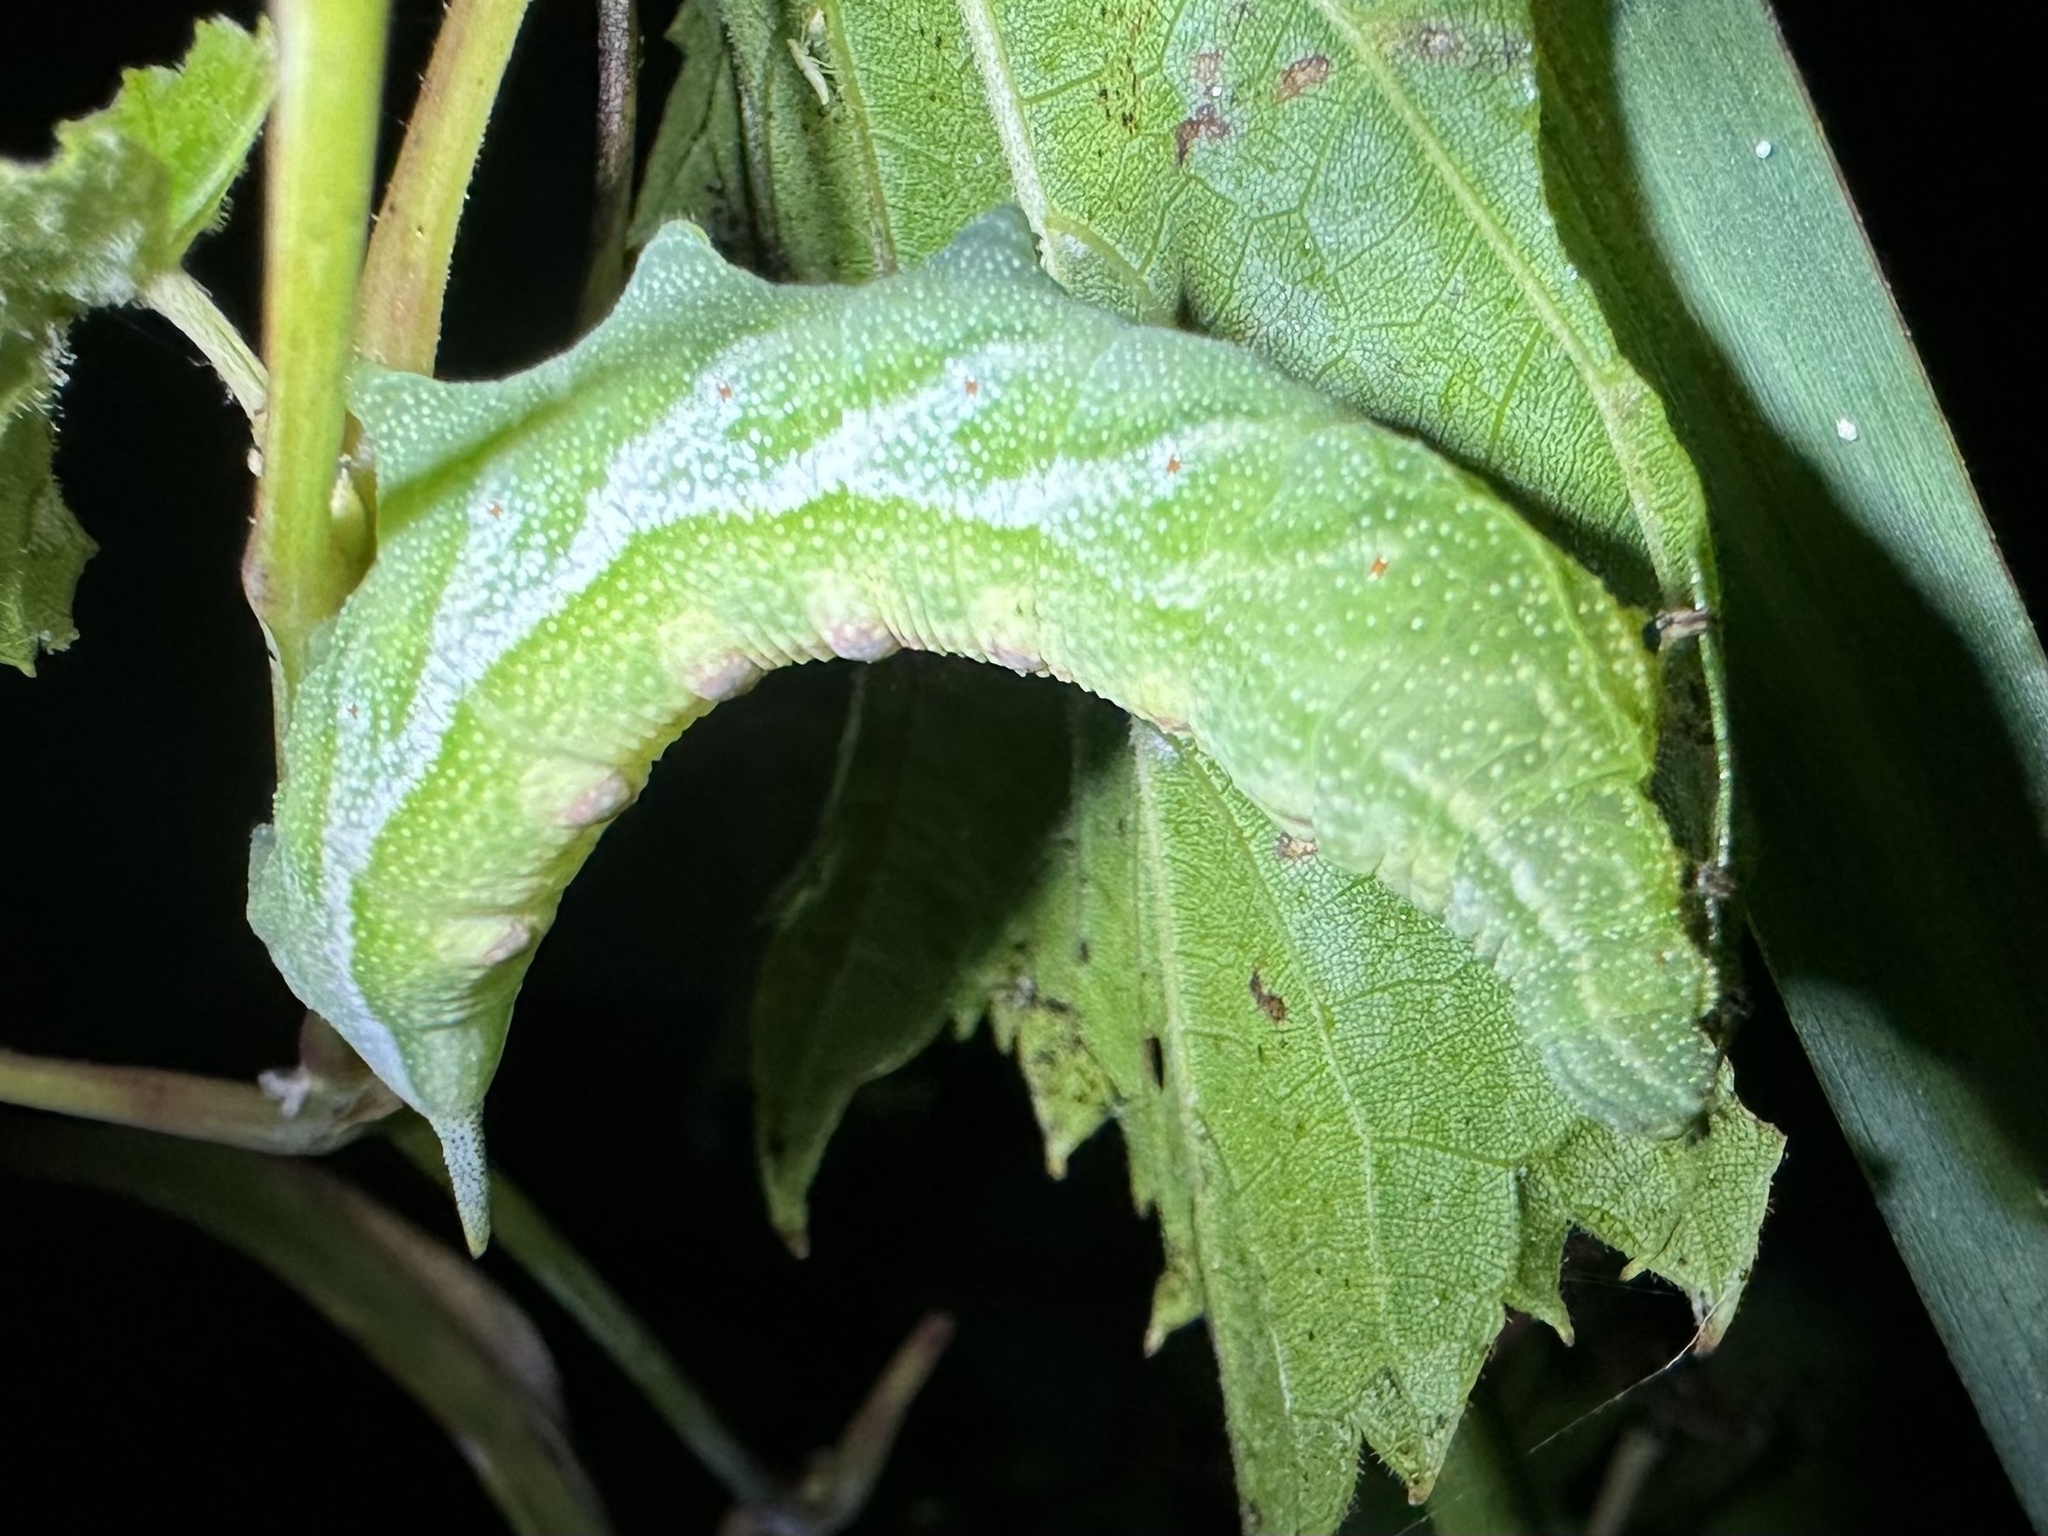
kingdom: Animalia
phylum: Arthropoda
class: Insecta
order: Lepidoptera
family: Sphingidae
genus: Darapsa
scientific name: Darapsa myron
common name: Hog sphinx
